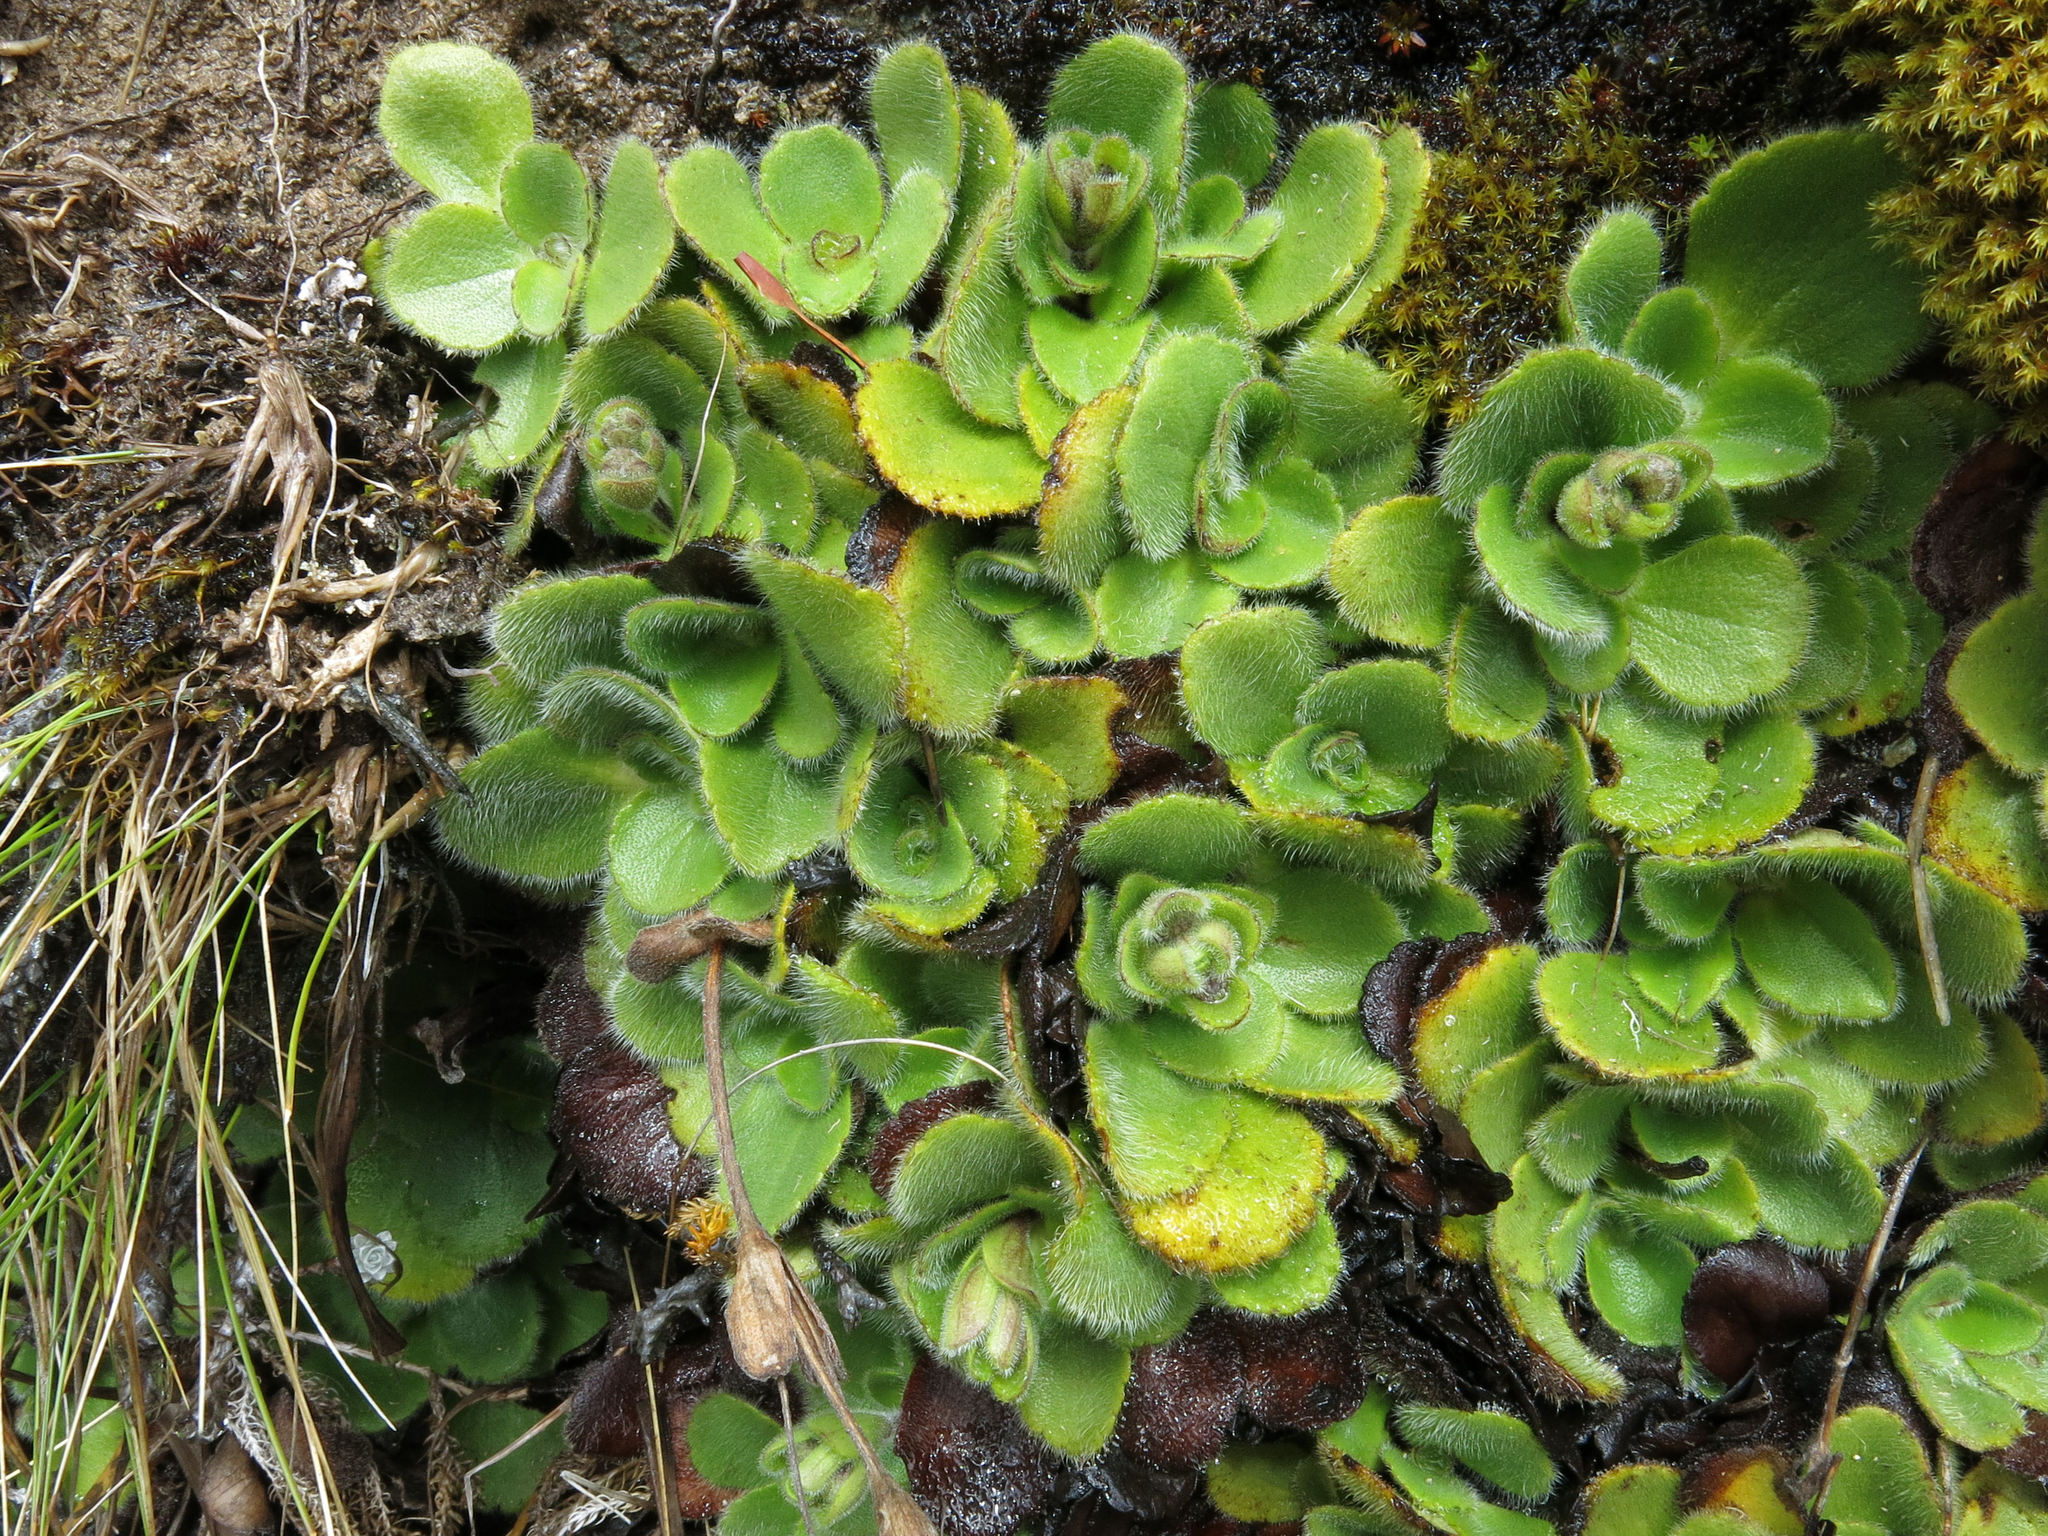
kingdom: Plantae
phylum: Tracheophyta
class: Magnoliopsida
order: Lamiales
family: Plantaginaceae
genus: Ourisia
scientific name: Ourisia spathulata
